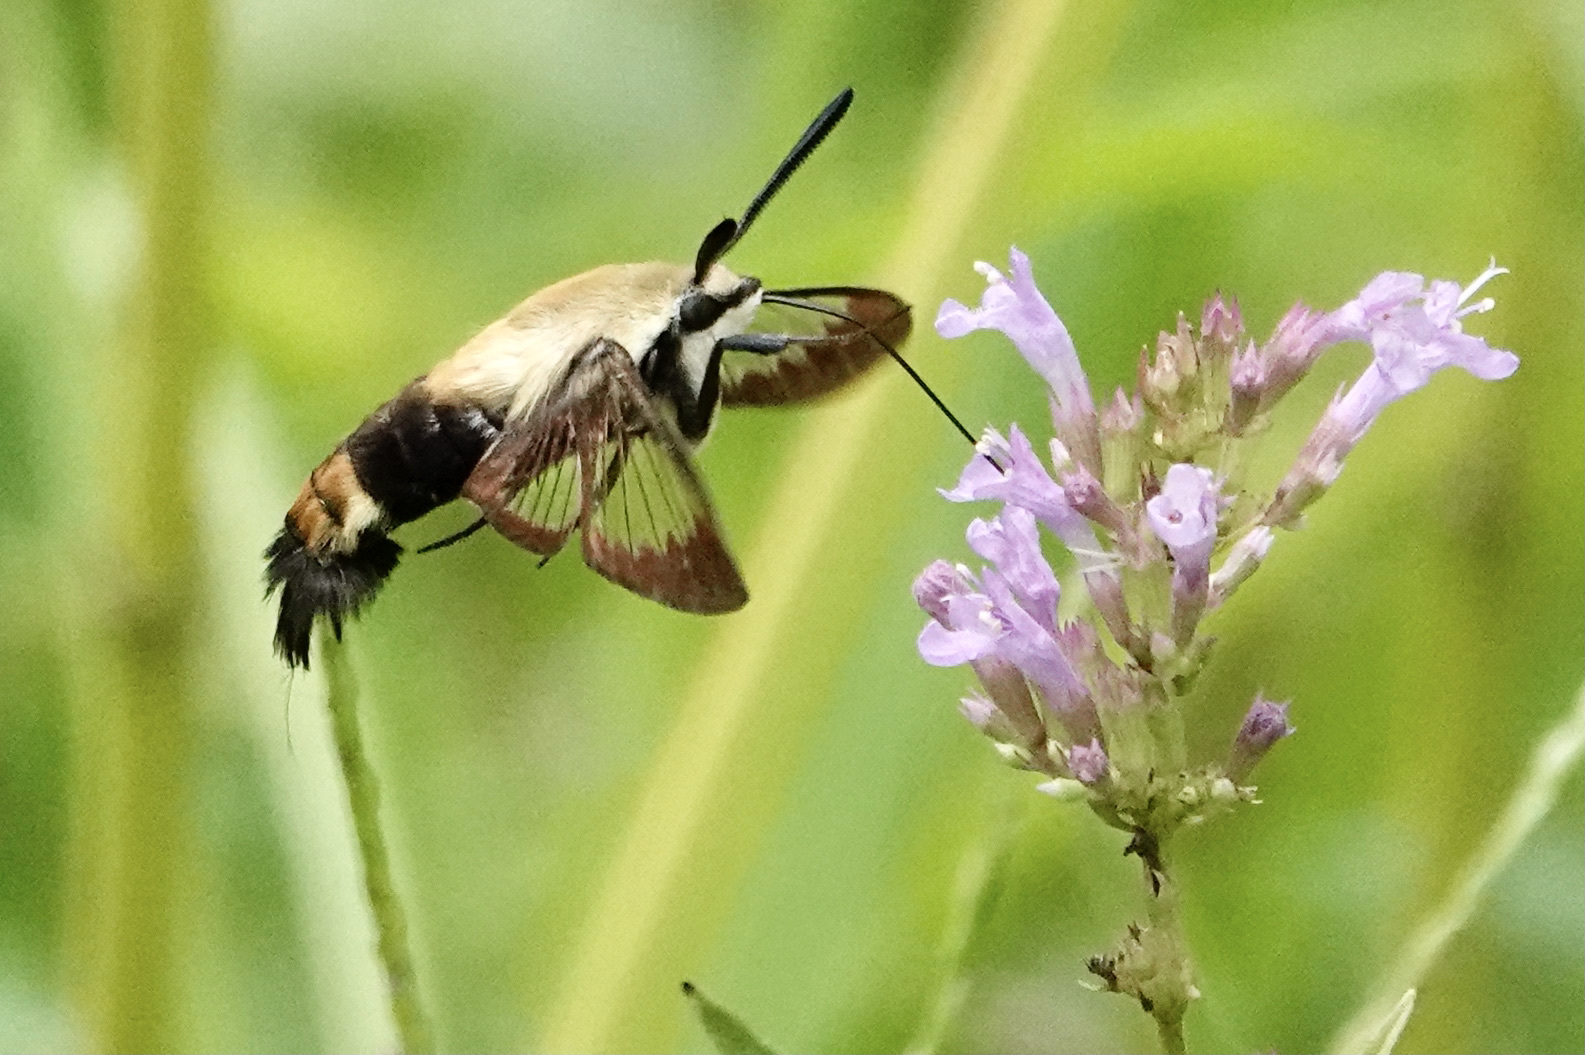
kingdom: Animalia
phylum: Arthropoda
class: Insecta
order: Lepidoptera
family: Sphingidae
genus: Hemaris
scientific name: Hemaris diffinis
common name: Bumblebee moth
